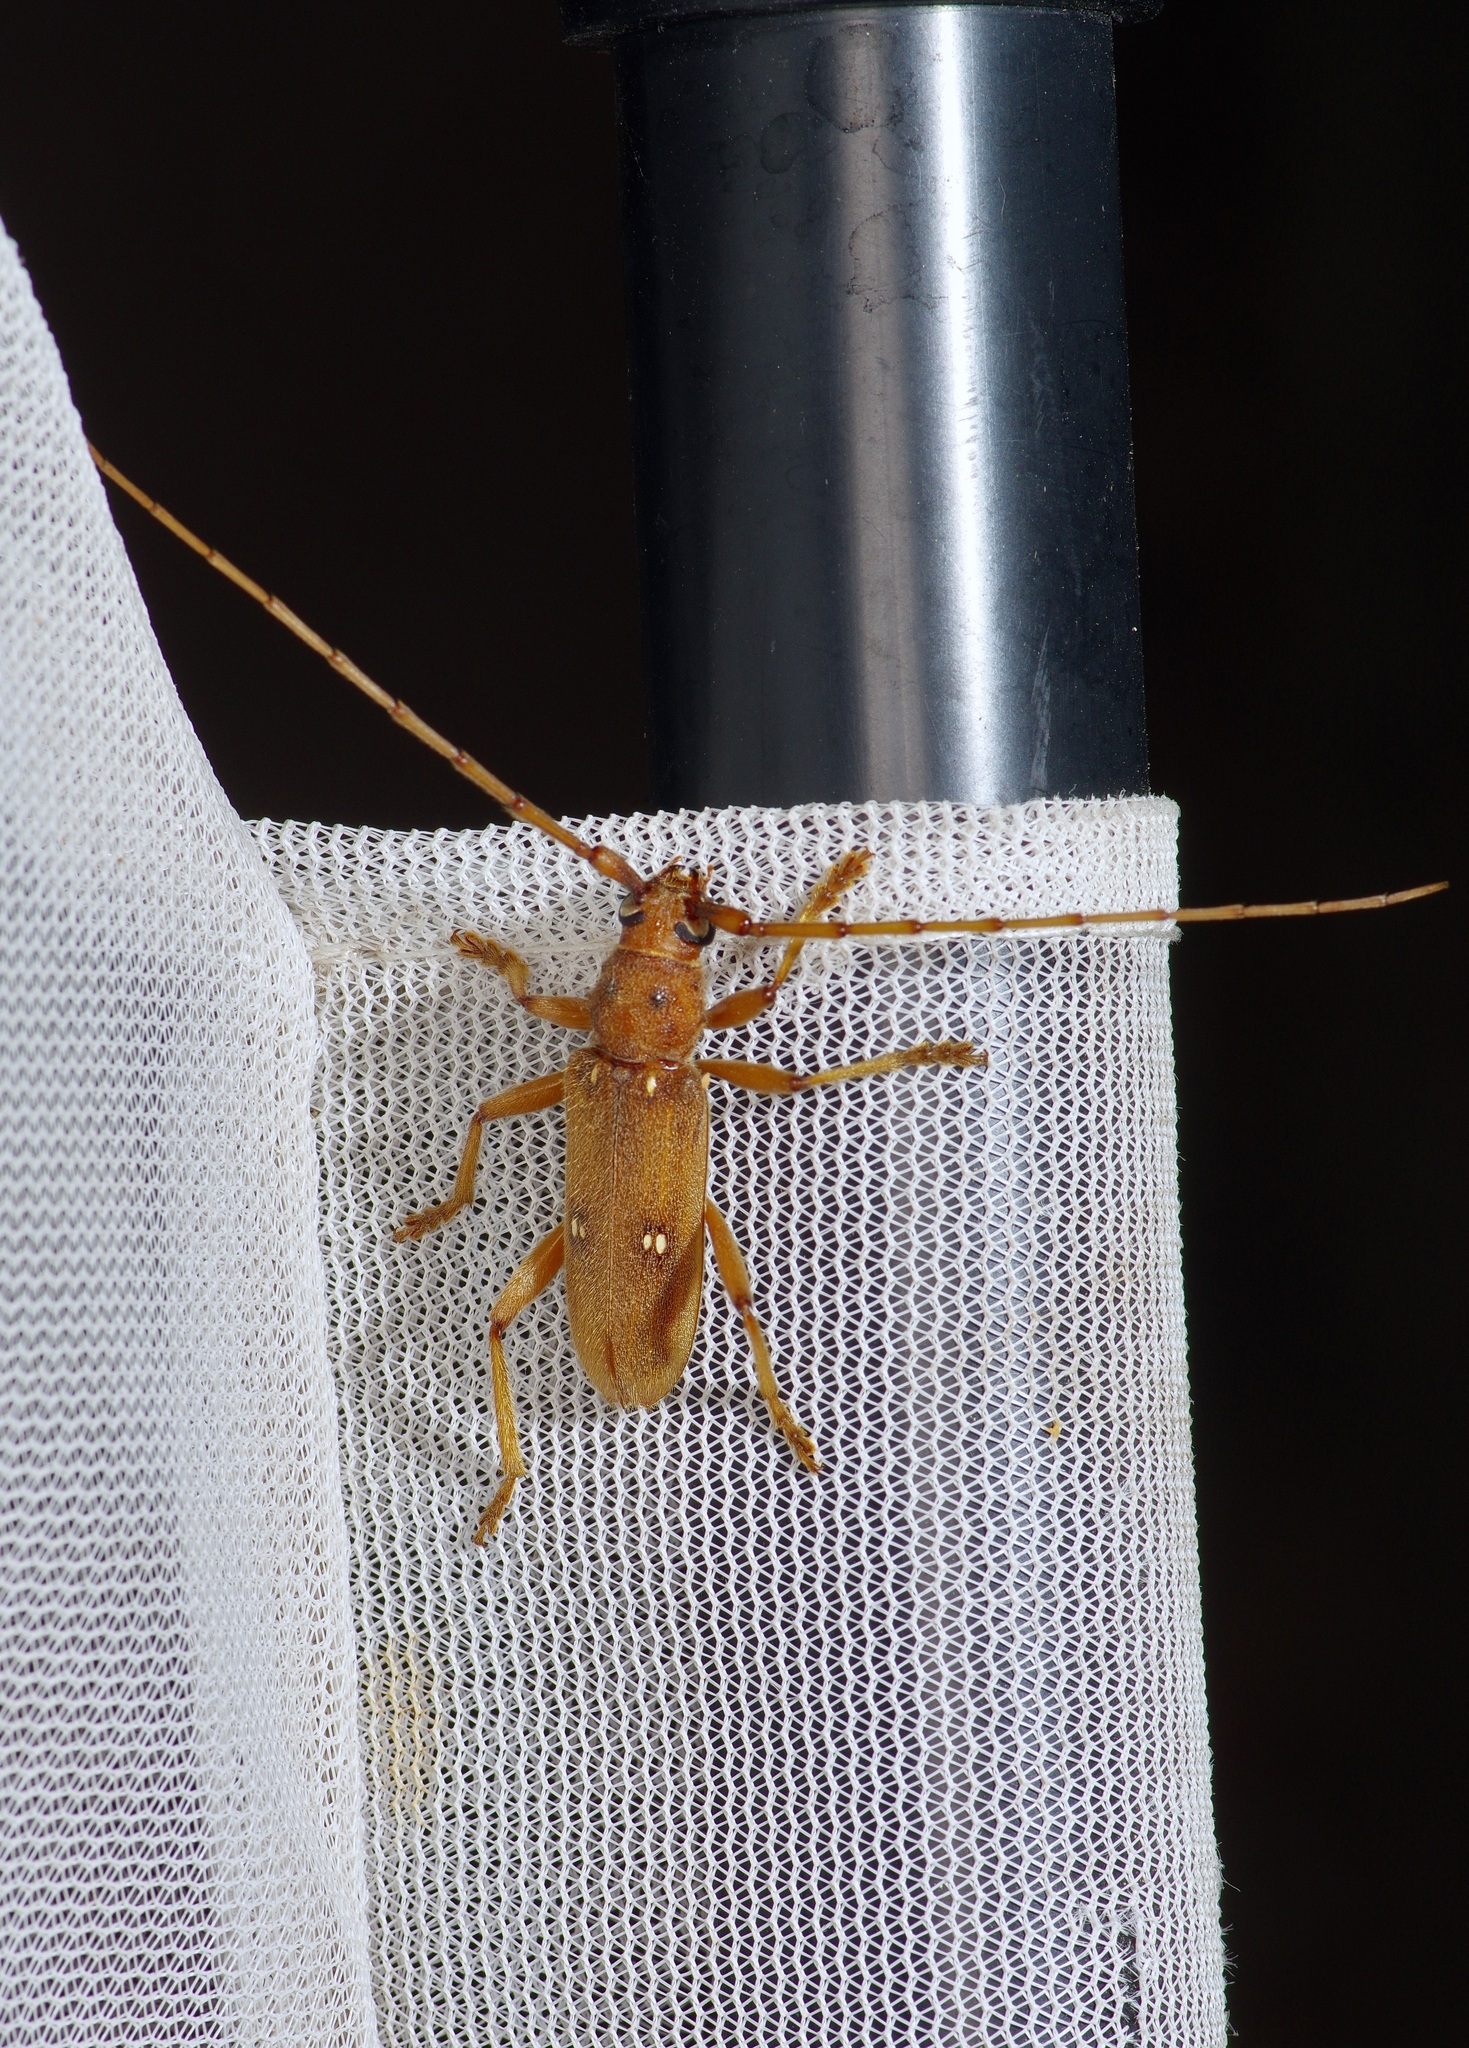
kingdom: Animalia
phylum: Arthropoda
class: Insecta
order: Coleoptera
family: Cerambycidae
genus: Eburia
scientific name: Eburia haldemani
